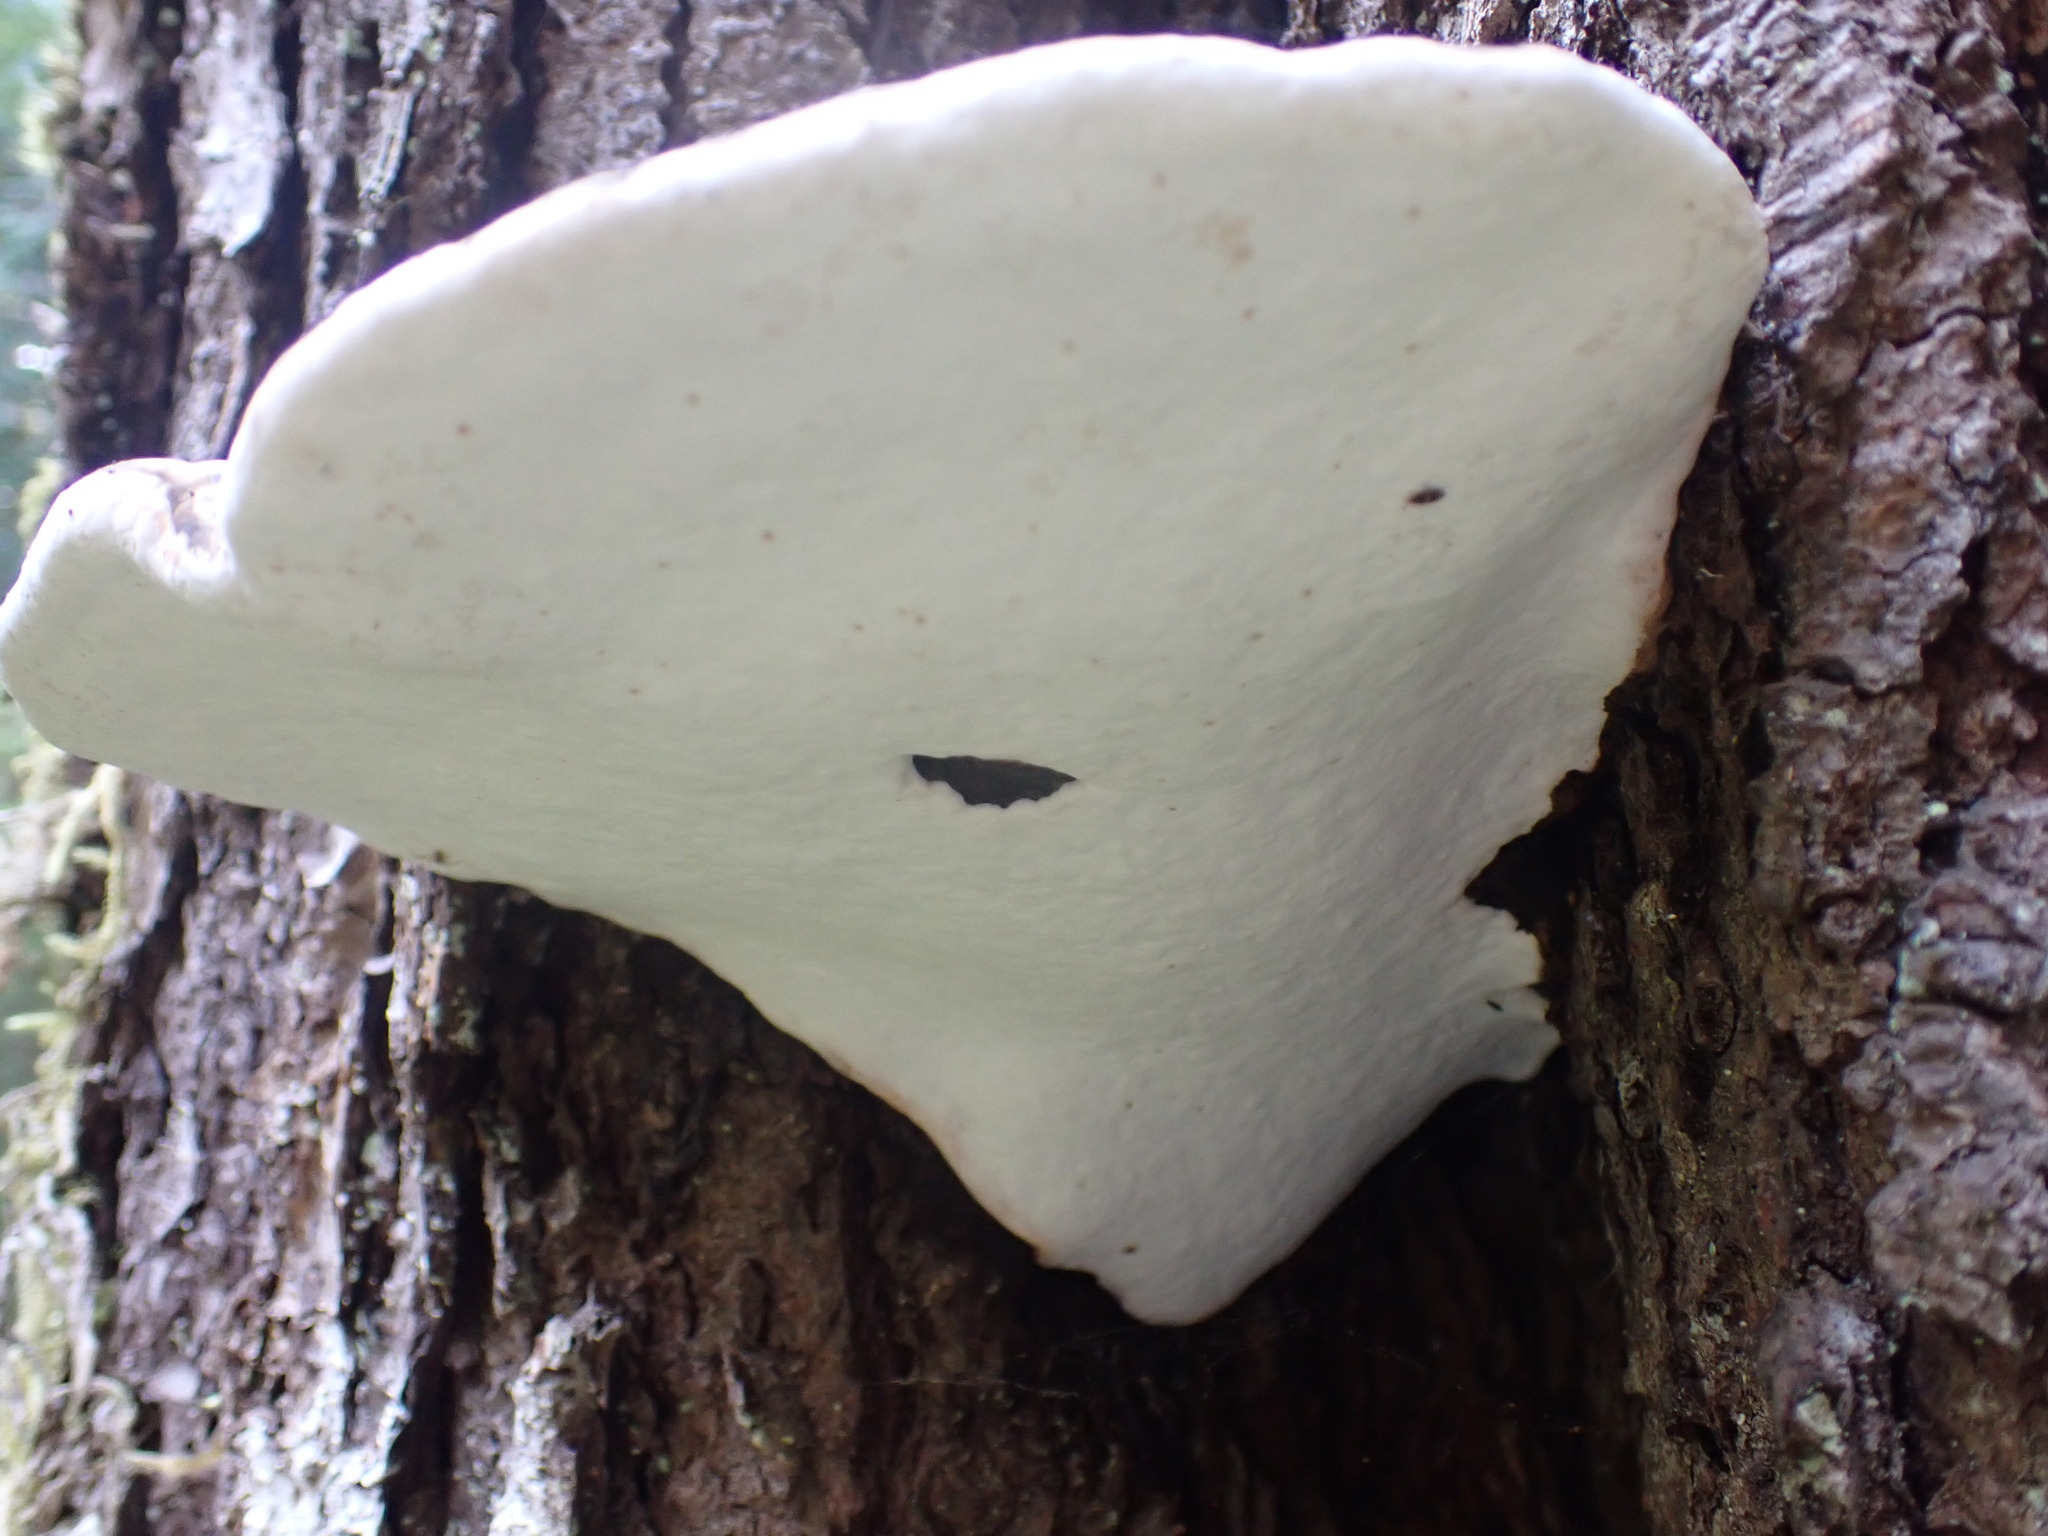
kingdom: Fungi
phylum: Basidiomycota
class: Agaricomycetes
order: Polyporales
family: Fomitopsidaceae
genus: Fomitopsis
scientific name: Fomitopsis ochracea
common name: American brown fomitopsis
